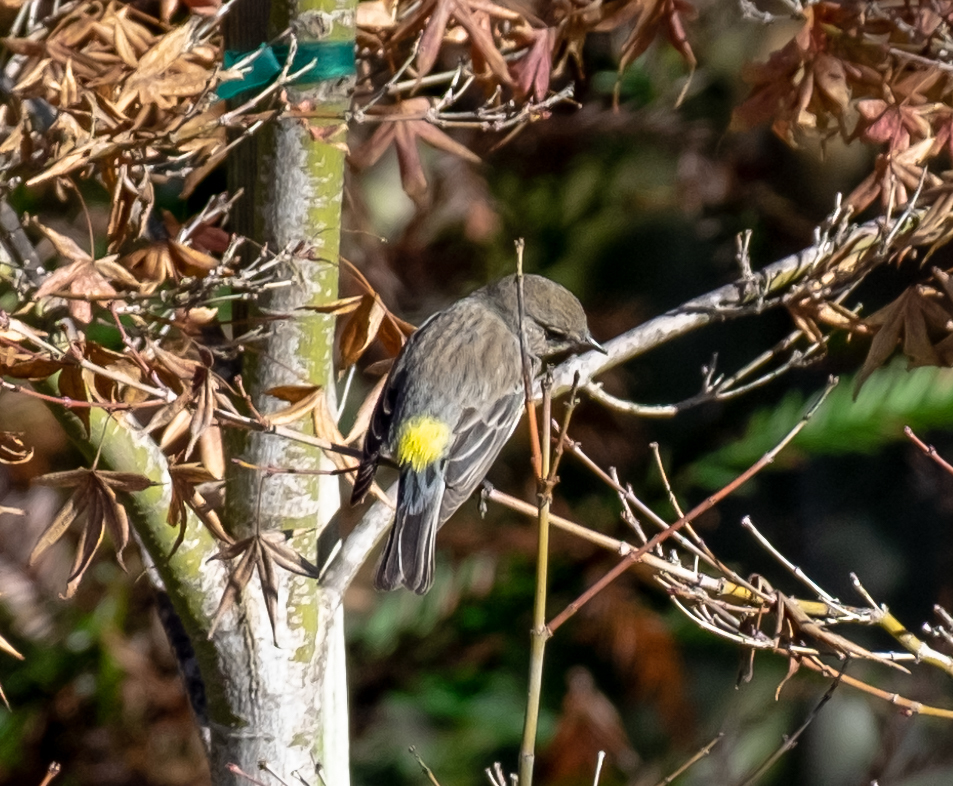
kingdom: Animalia
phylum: Chordata
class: Aves
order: Passeriformes
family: Parulidae
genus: Setophaga
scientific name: Setophaga coronata
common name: Myrtle warbler
